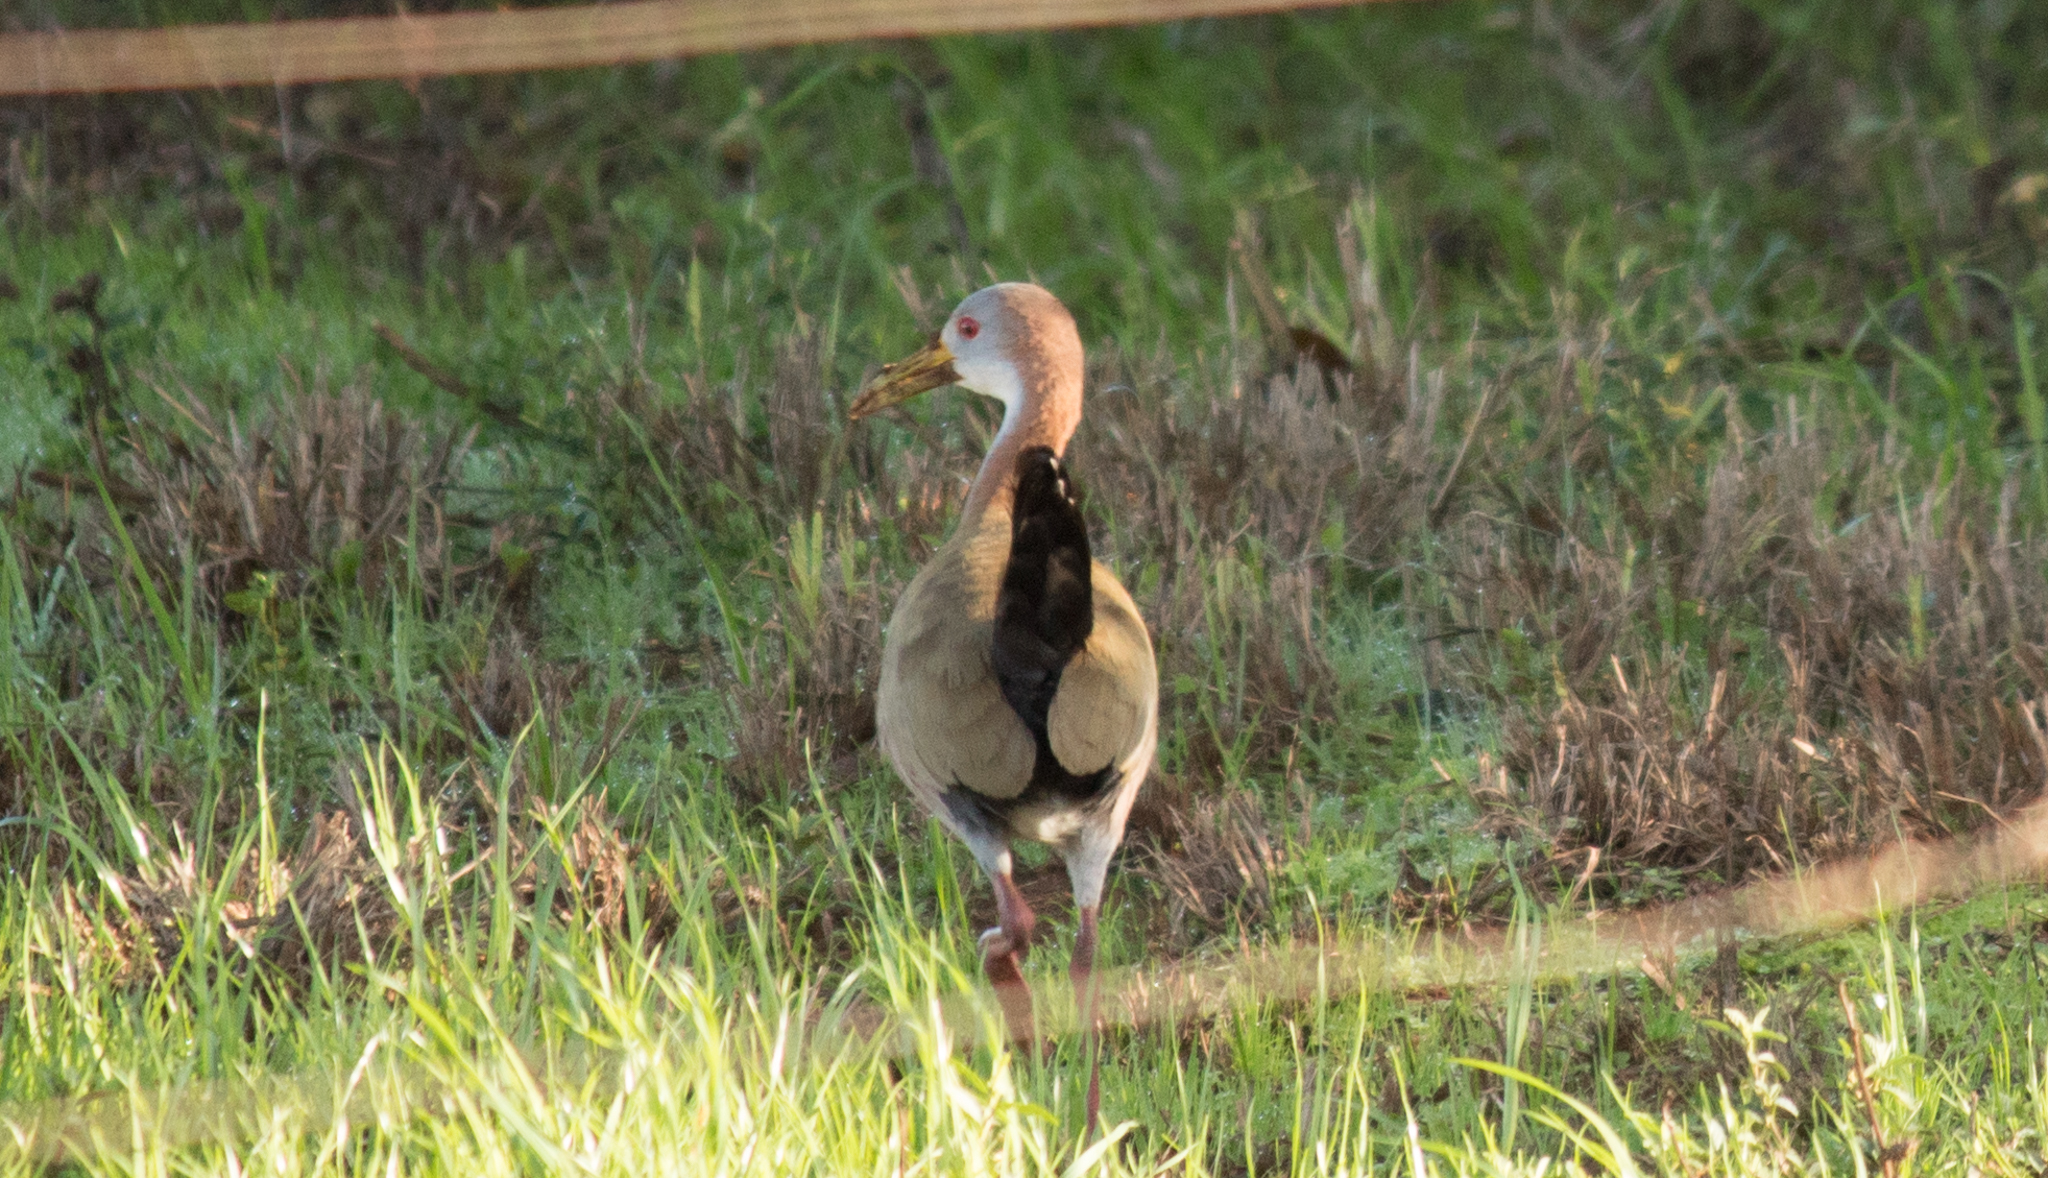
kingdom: Animalia
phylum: Chordata
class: Aves
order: Gruiformes
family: Rallidae
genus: Aramides
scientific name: Aramides ypecaha
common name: Giant wood rail
